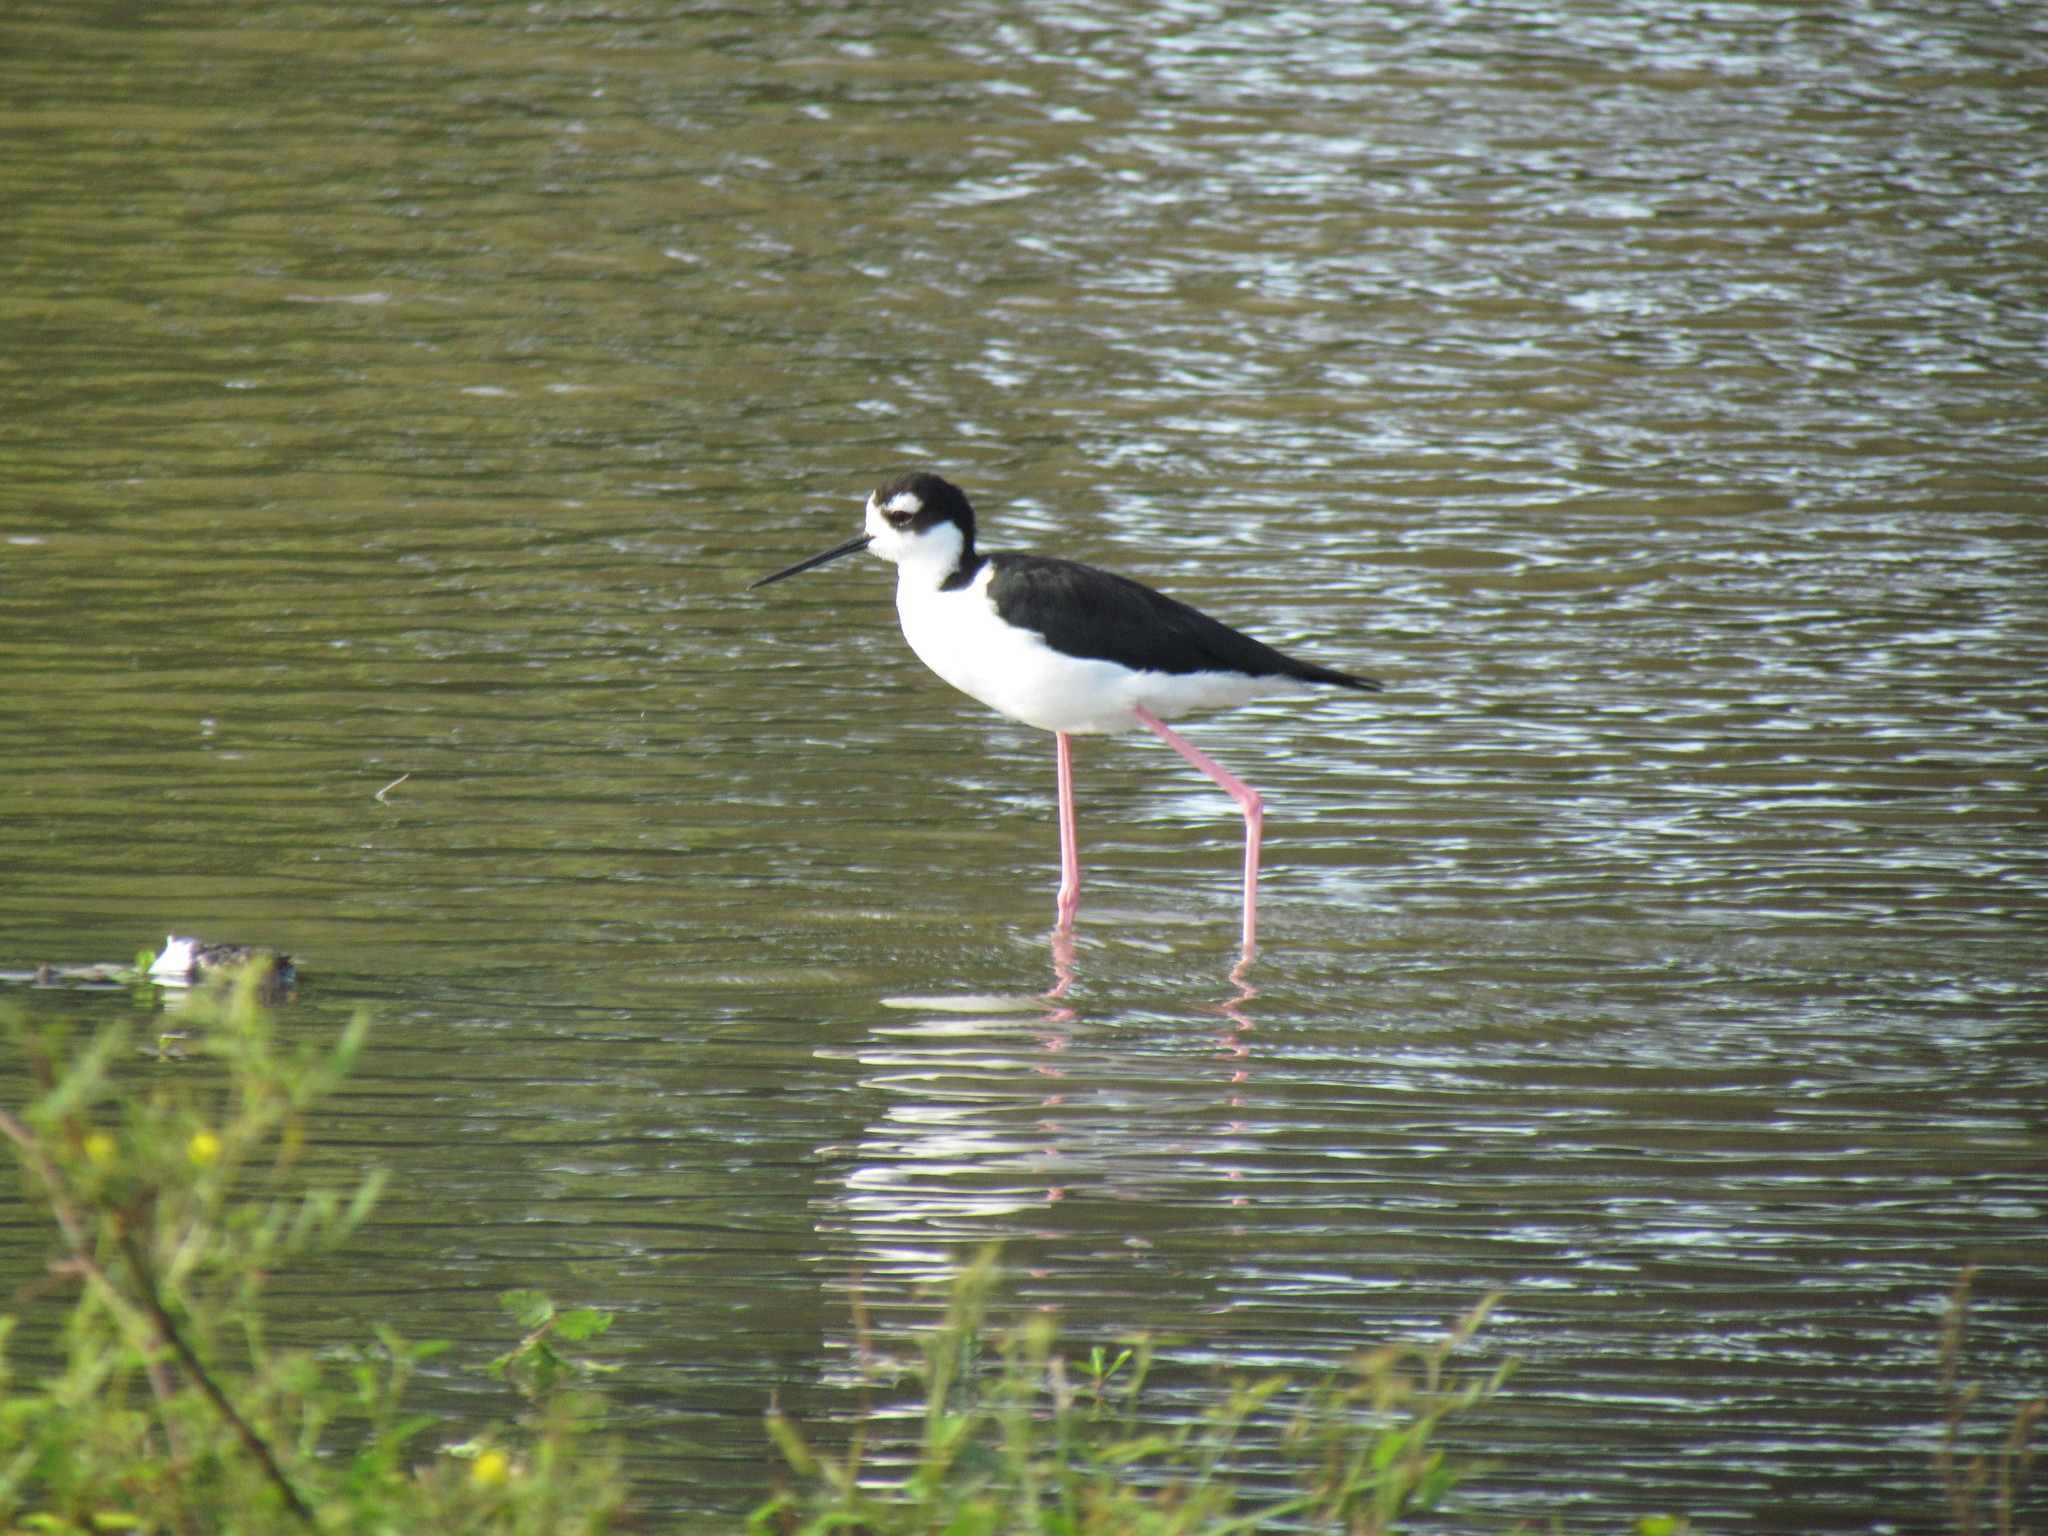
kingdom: Animalia
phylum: Chordata
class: Aves
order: Charadriiformes
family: Recurvirostridae
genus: Himantopus
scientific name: Himantopus mexicanus
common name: Black-necked stilt
